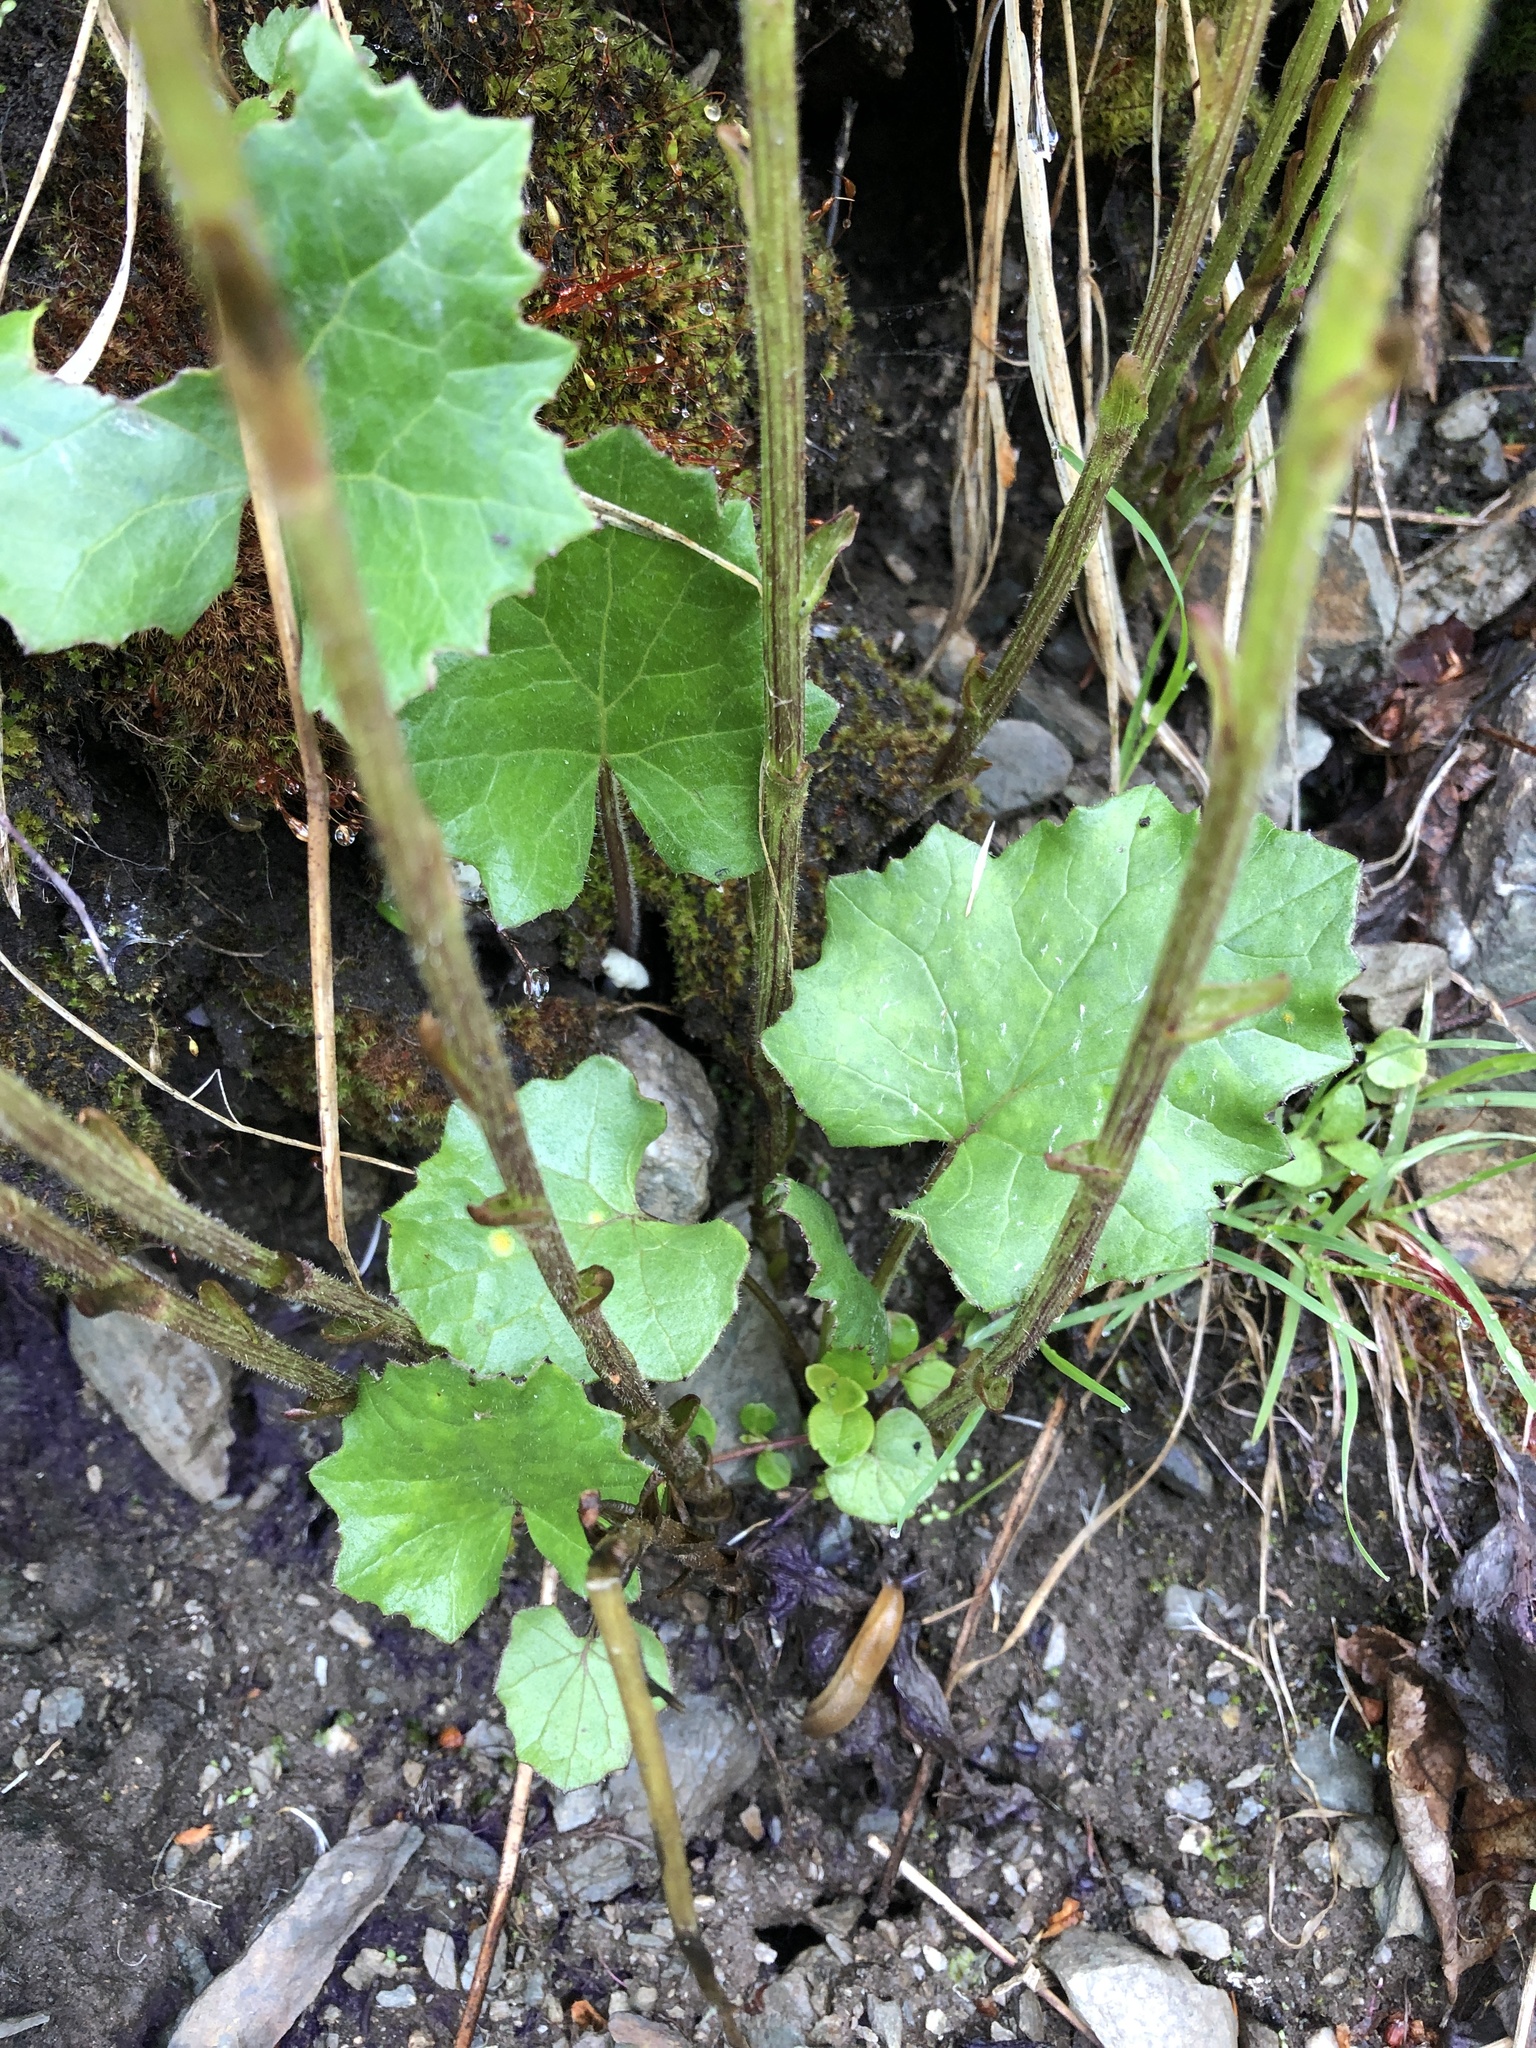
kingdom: Plantae
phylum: Tracheophyta
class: Magnoliopsida
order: Asterales
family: Asteraceae
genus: Tussilago
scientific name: Tussilago farfara
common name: Coltsfoot
